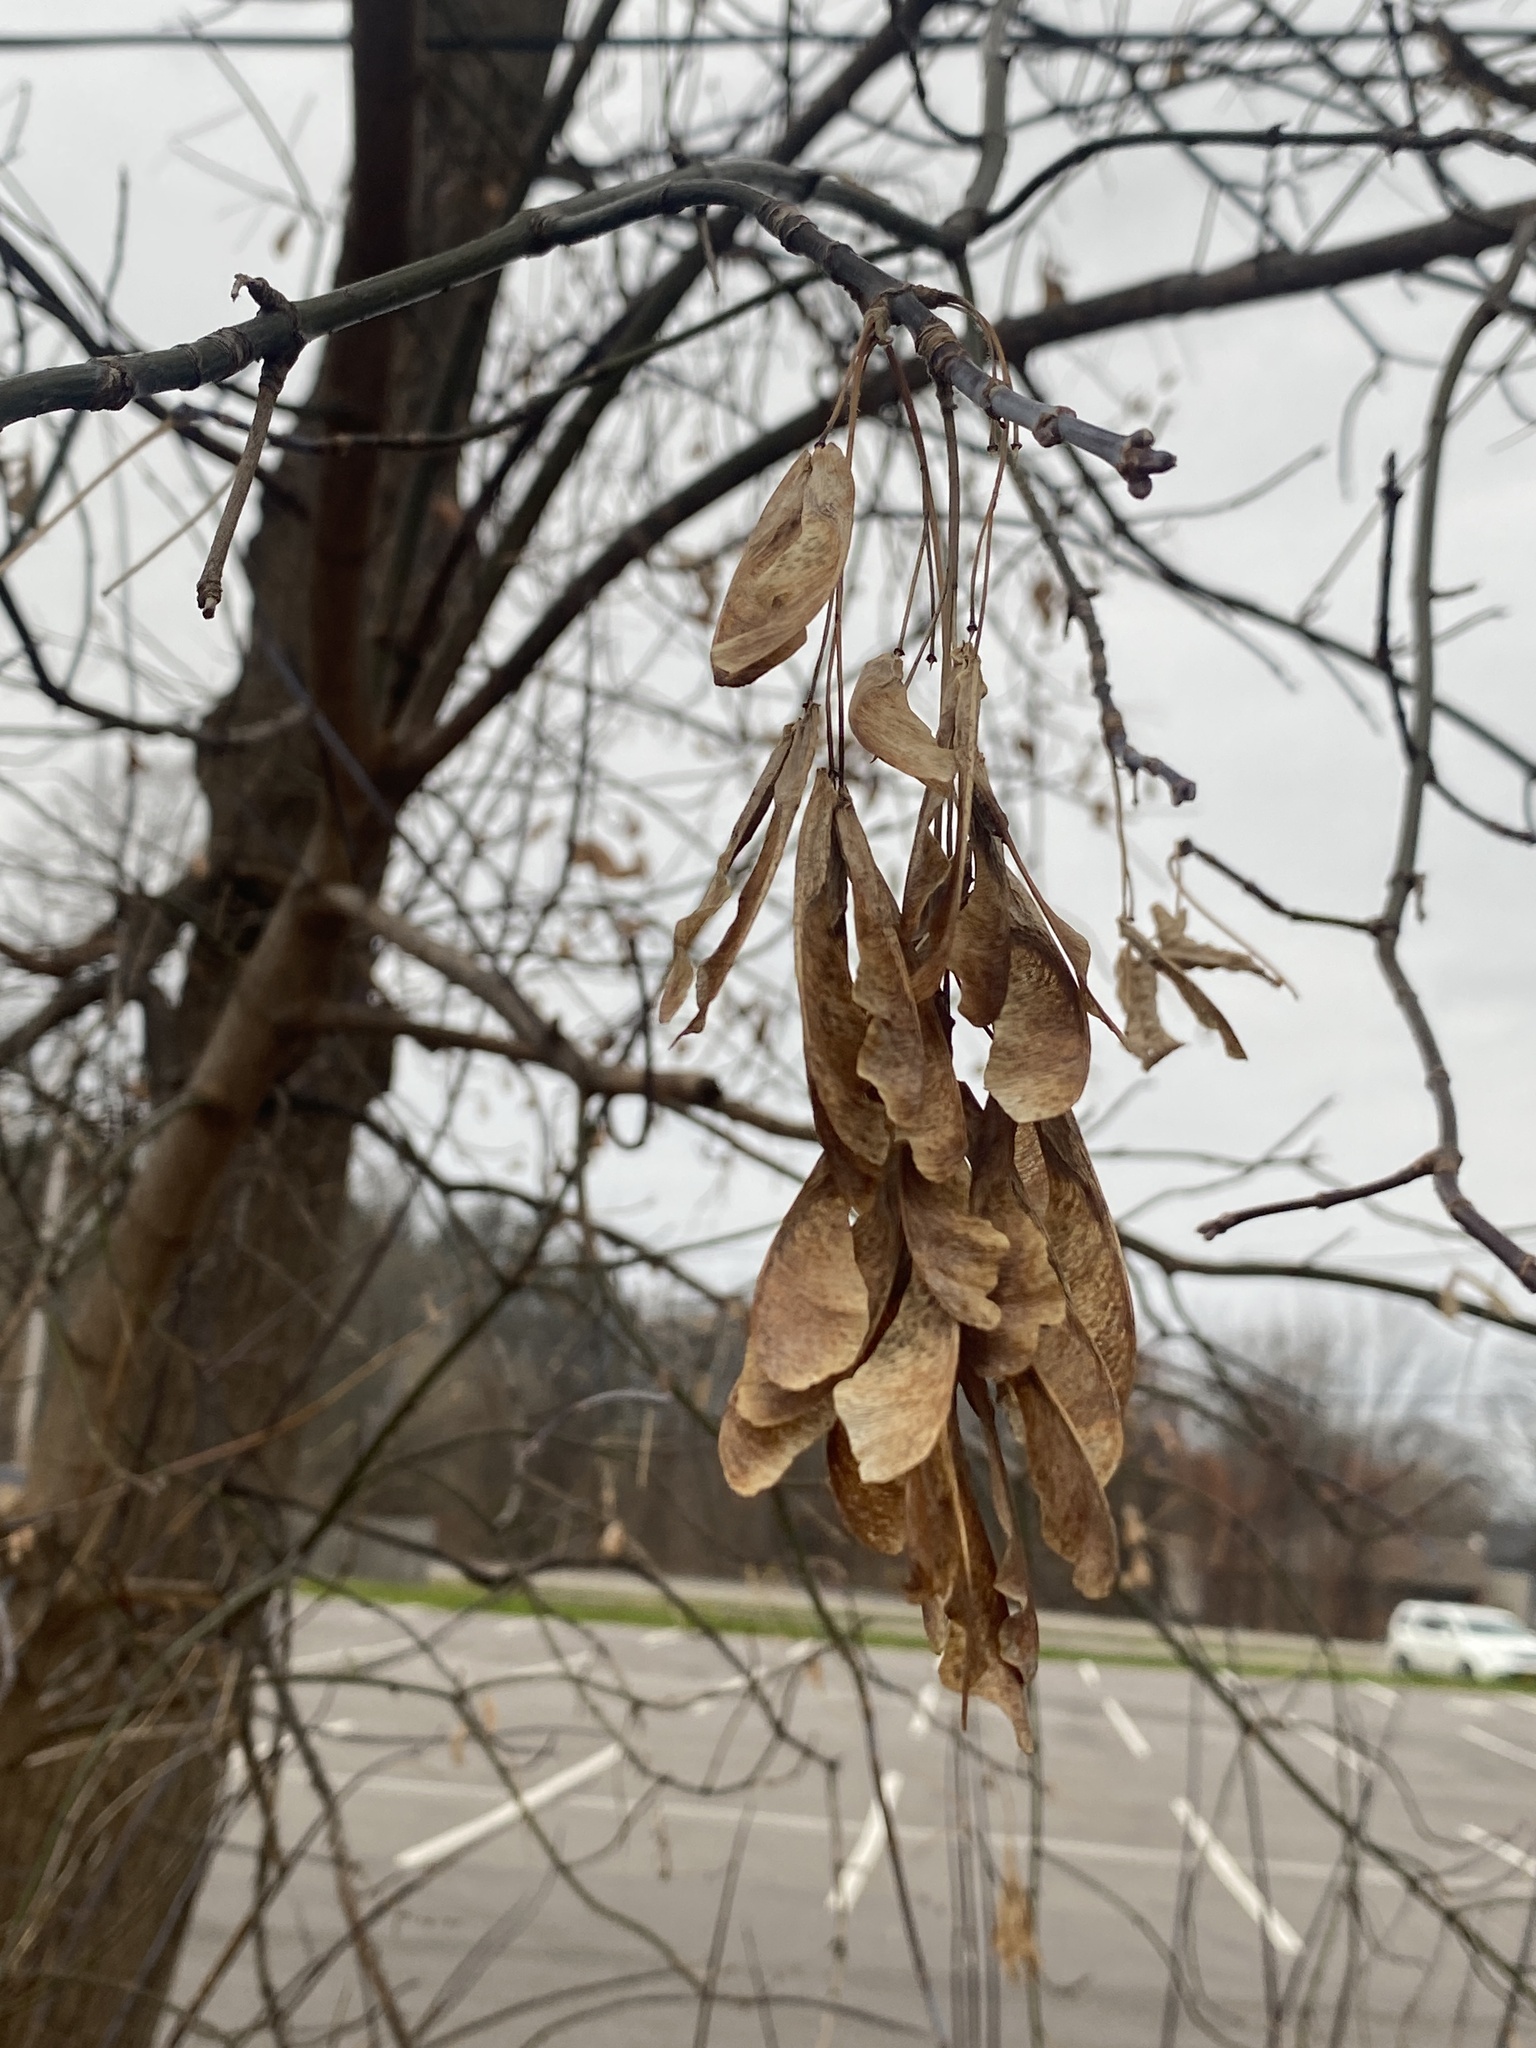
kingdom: Plantae
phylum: Tracheophyta
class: Magnoliopsida
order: Sapindales
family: Sapindaceae
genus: Acer
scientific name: Acer negundo
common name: Ashleaf maple
